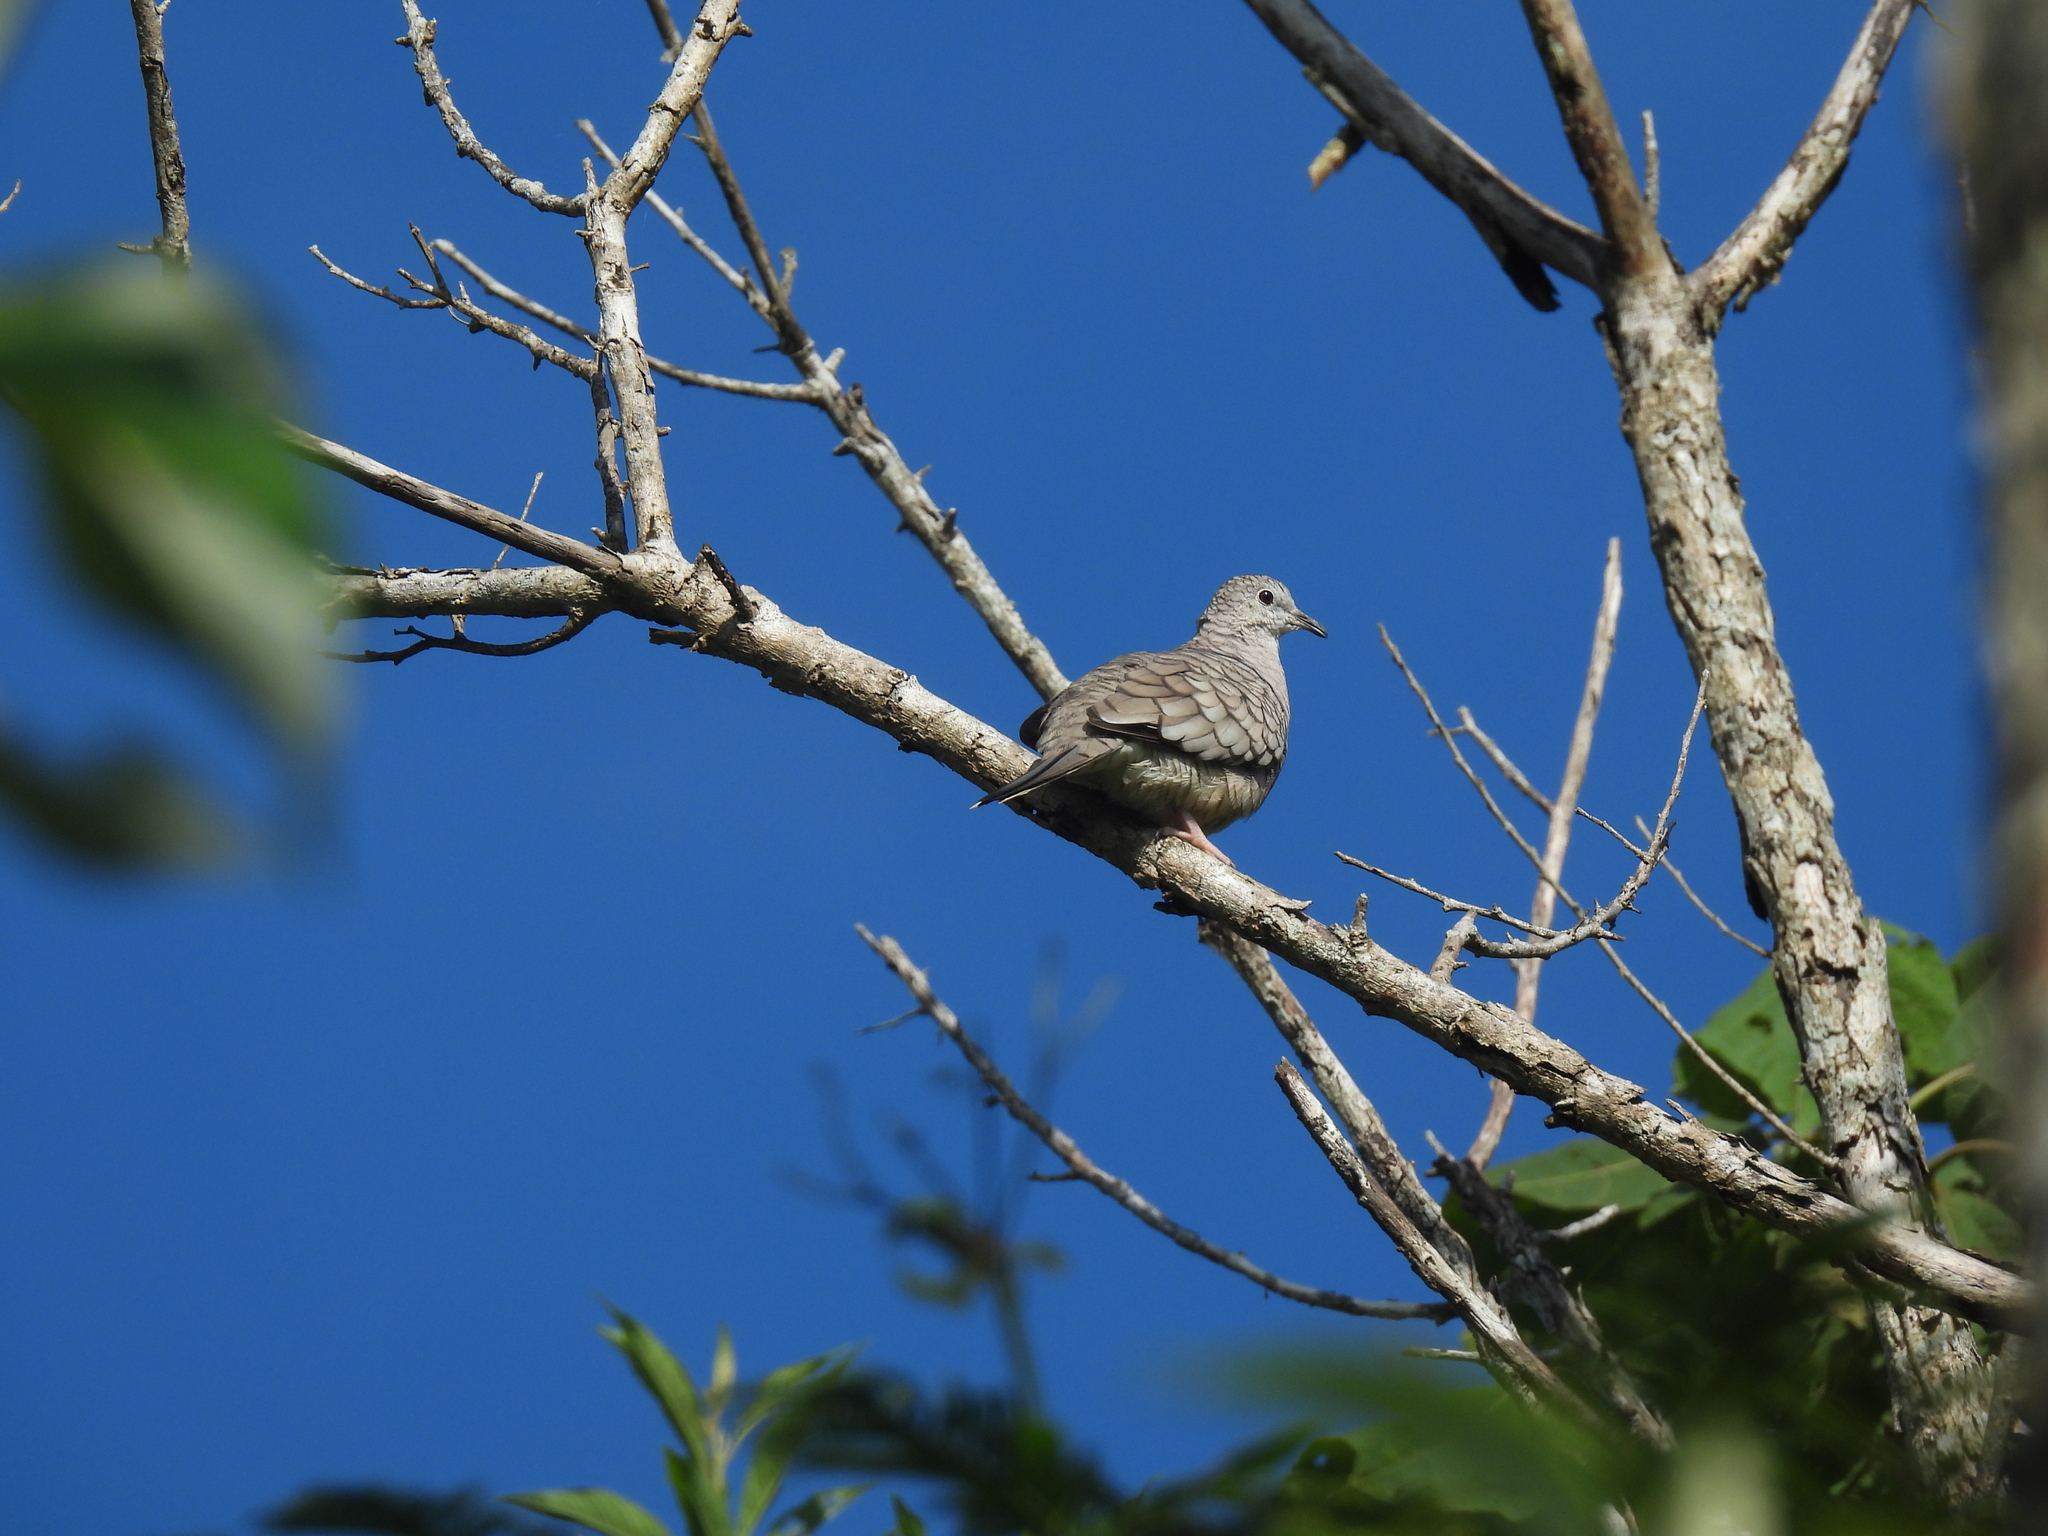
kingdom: Animalia
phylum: Chordata
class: Aves
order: Columbiformes
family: Columbidae
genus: Columbina
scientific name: Columbina inca
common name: Inca dove
